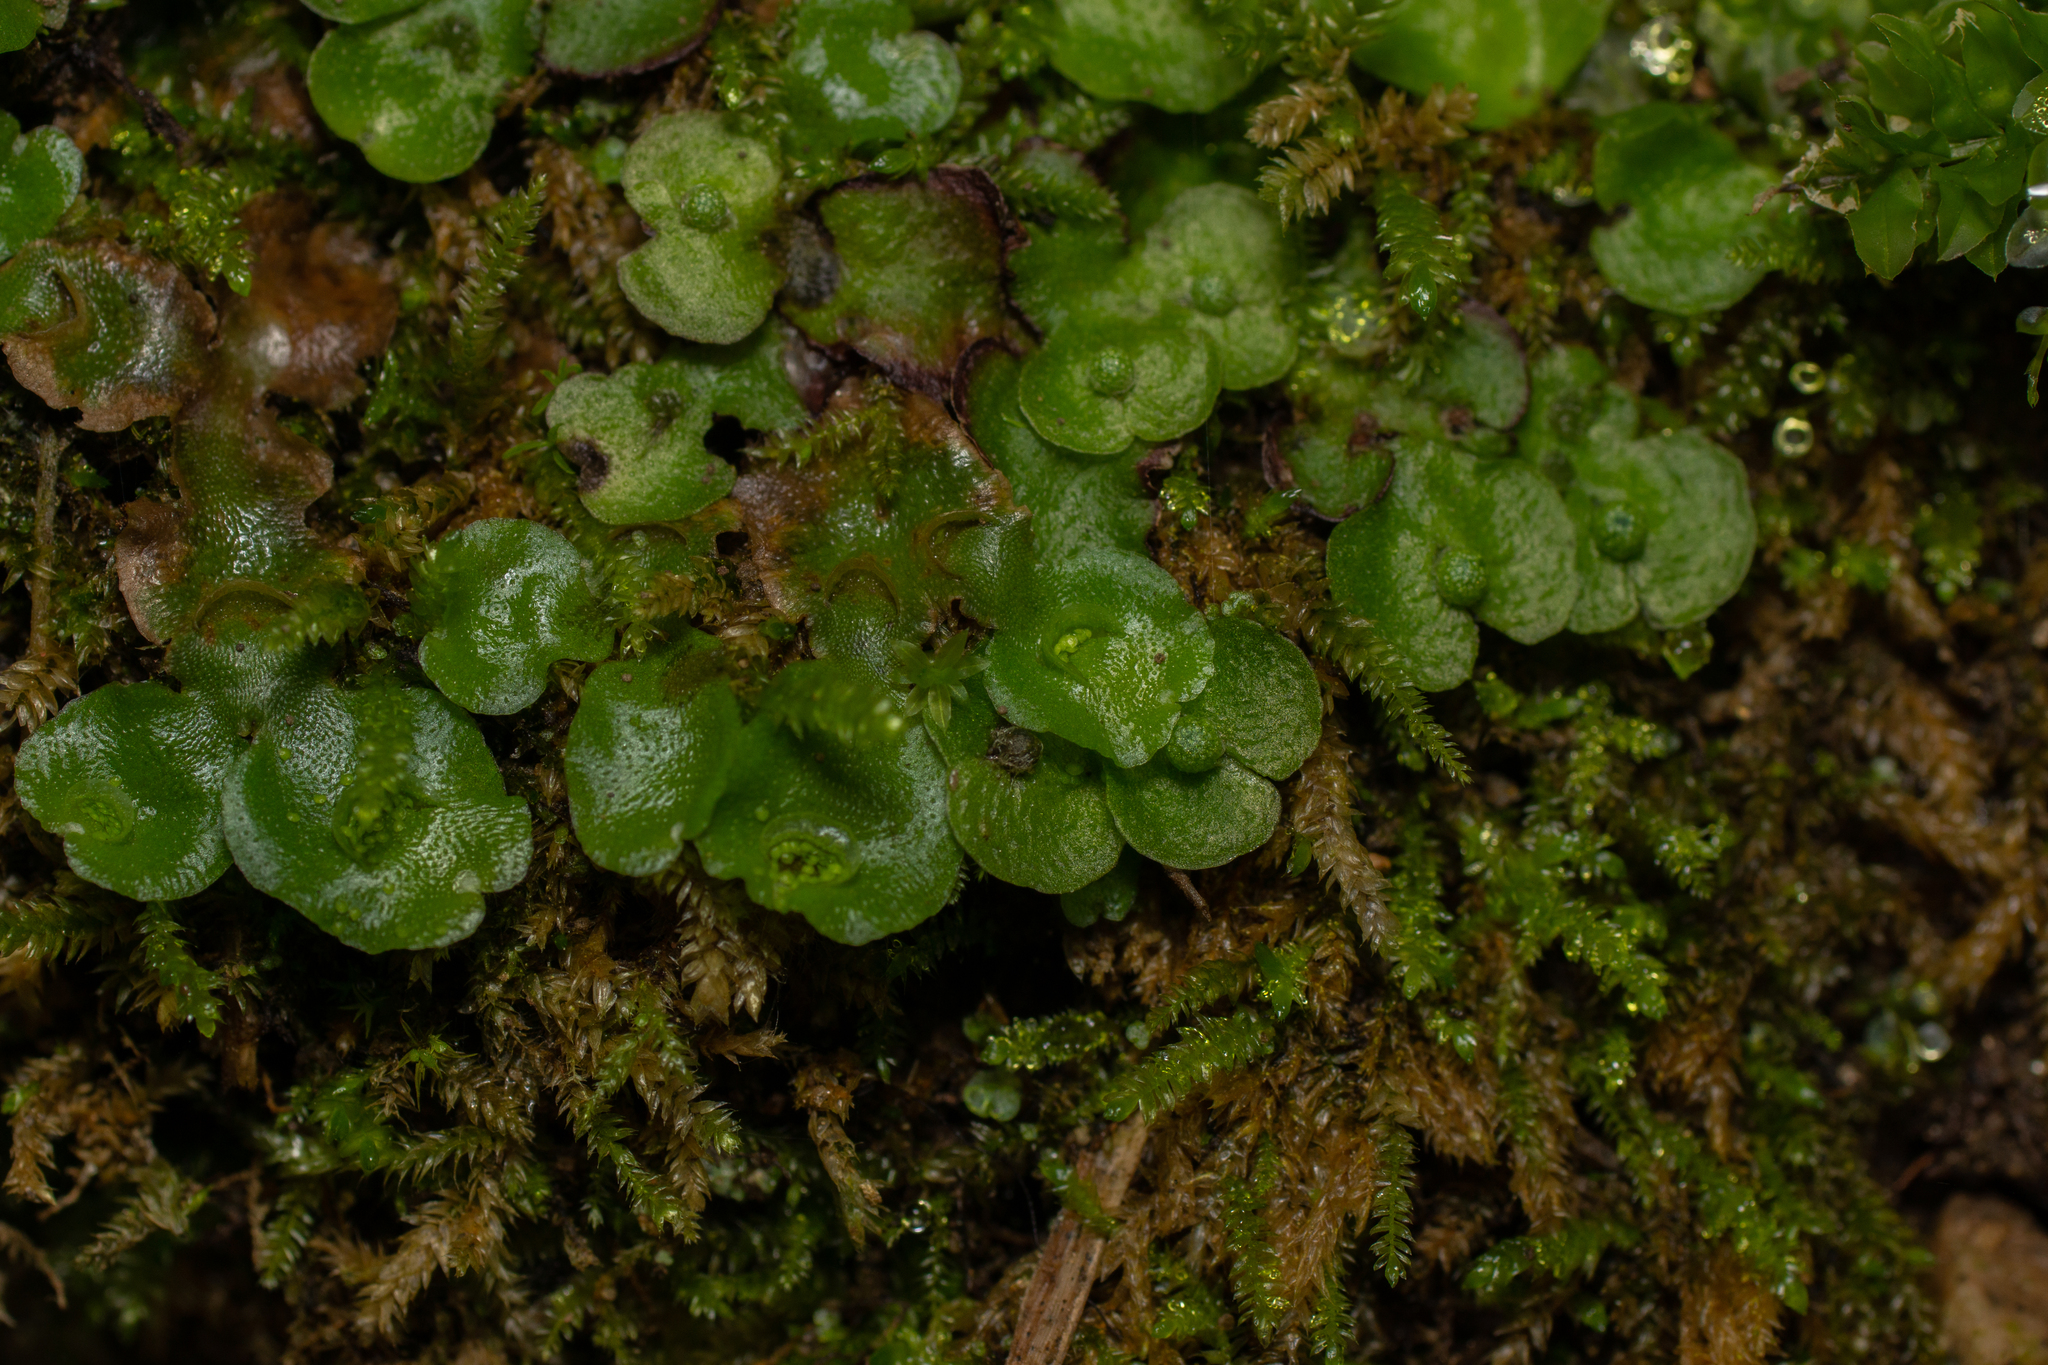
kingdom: Plantae
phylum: Marchantiophyta
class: Marchantiopsida
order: Lunulariales
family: Lunulariaceae
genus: Lunularia
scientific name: Lunularia cruciata
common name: Crescent-cup liverwort
